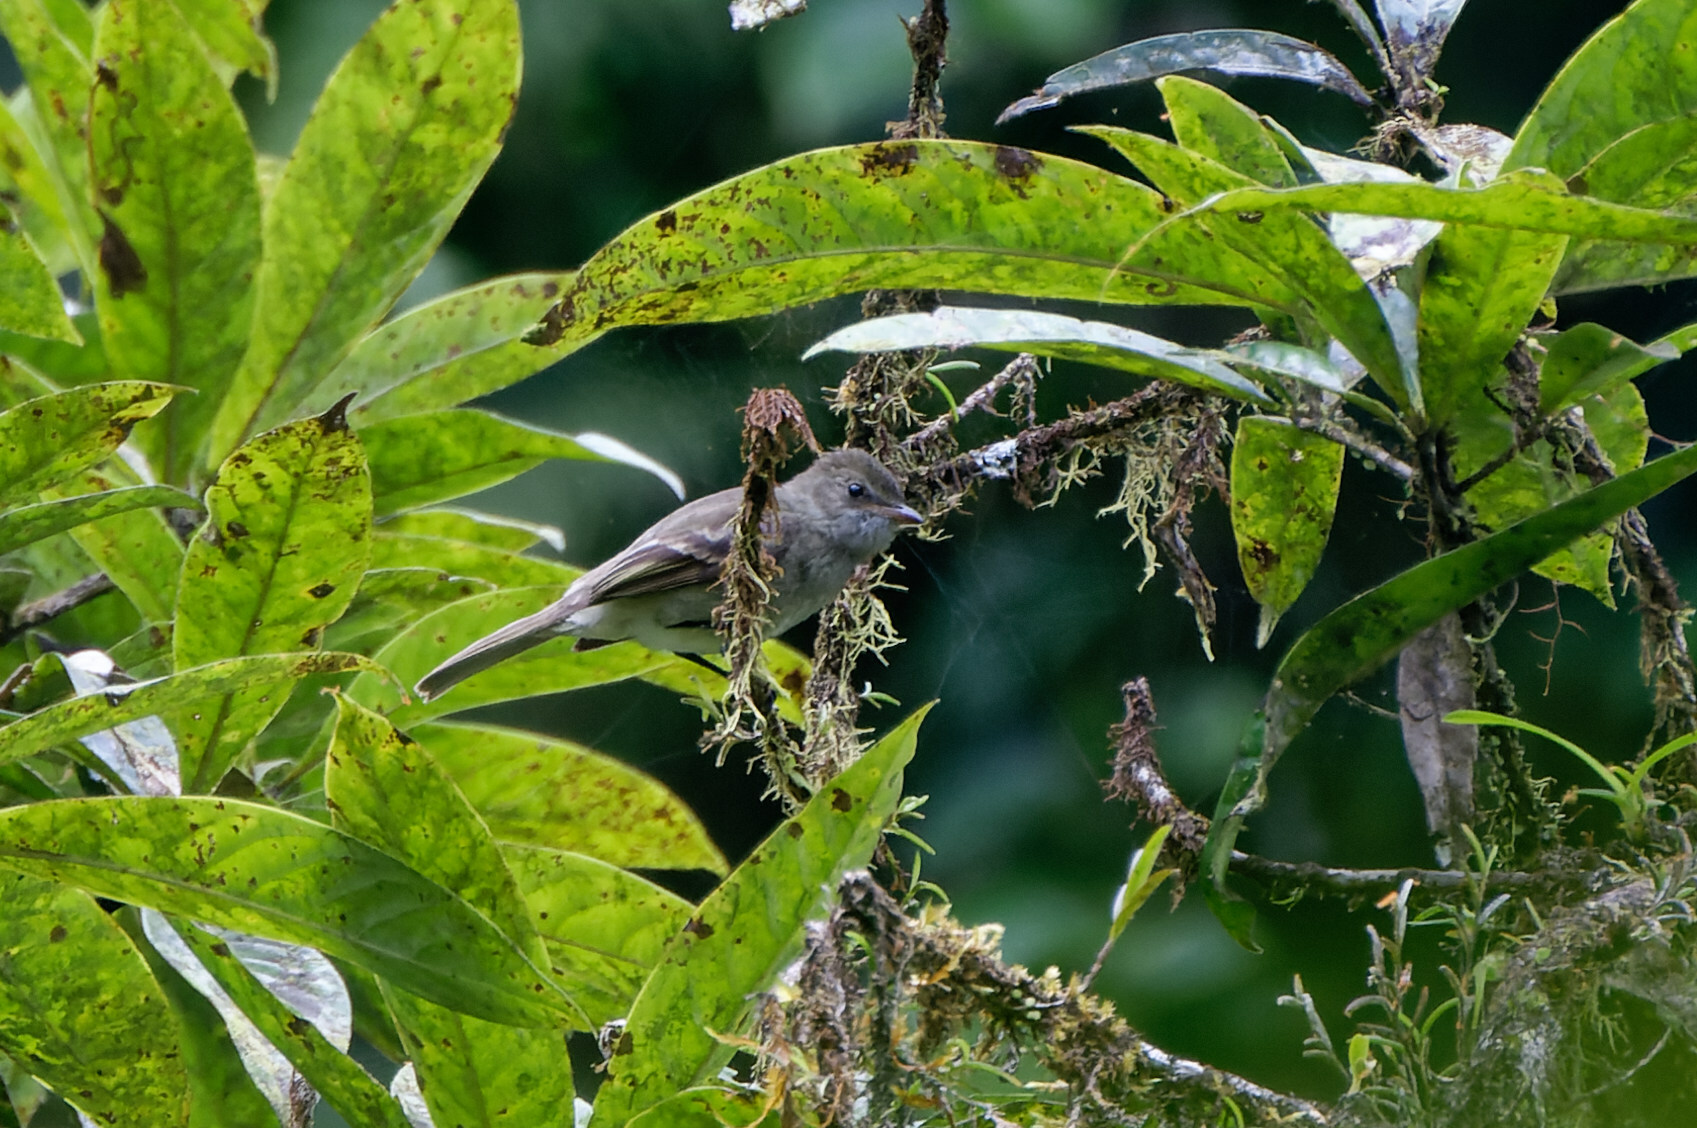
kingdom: Animalia
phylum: Chordata
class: Aves
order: Passeriformes
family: Tyrannidae
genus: Elaenia
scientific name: Elaenia martinica
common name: Caribbean elaenia
